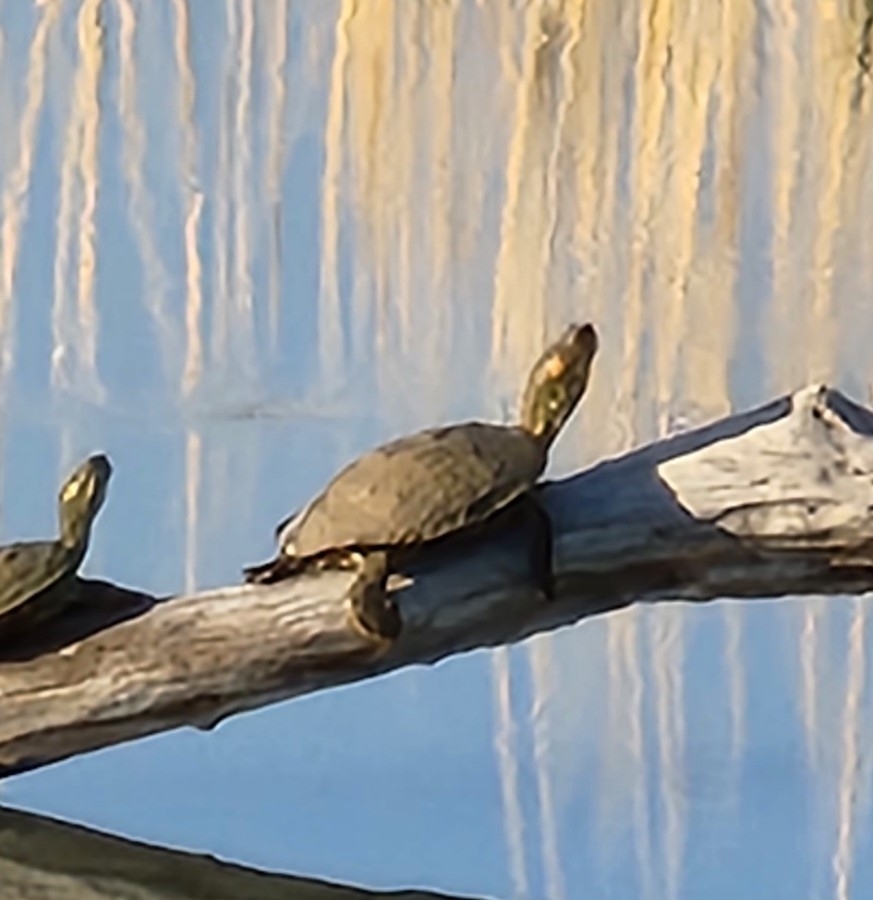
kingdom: Animalia
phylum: Chordata
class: Testudines
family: Emydidae
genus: Trachemys
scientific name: Trachemys gaigeae
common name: Big bend slider
